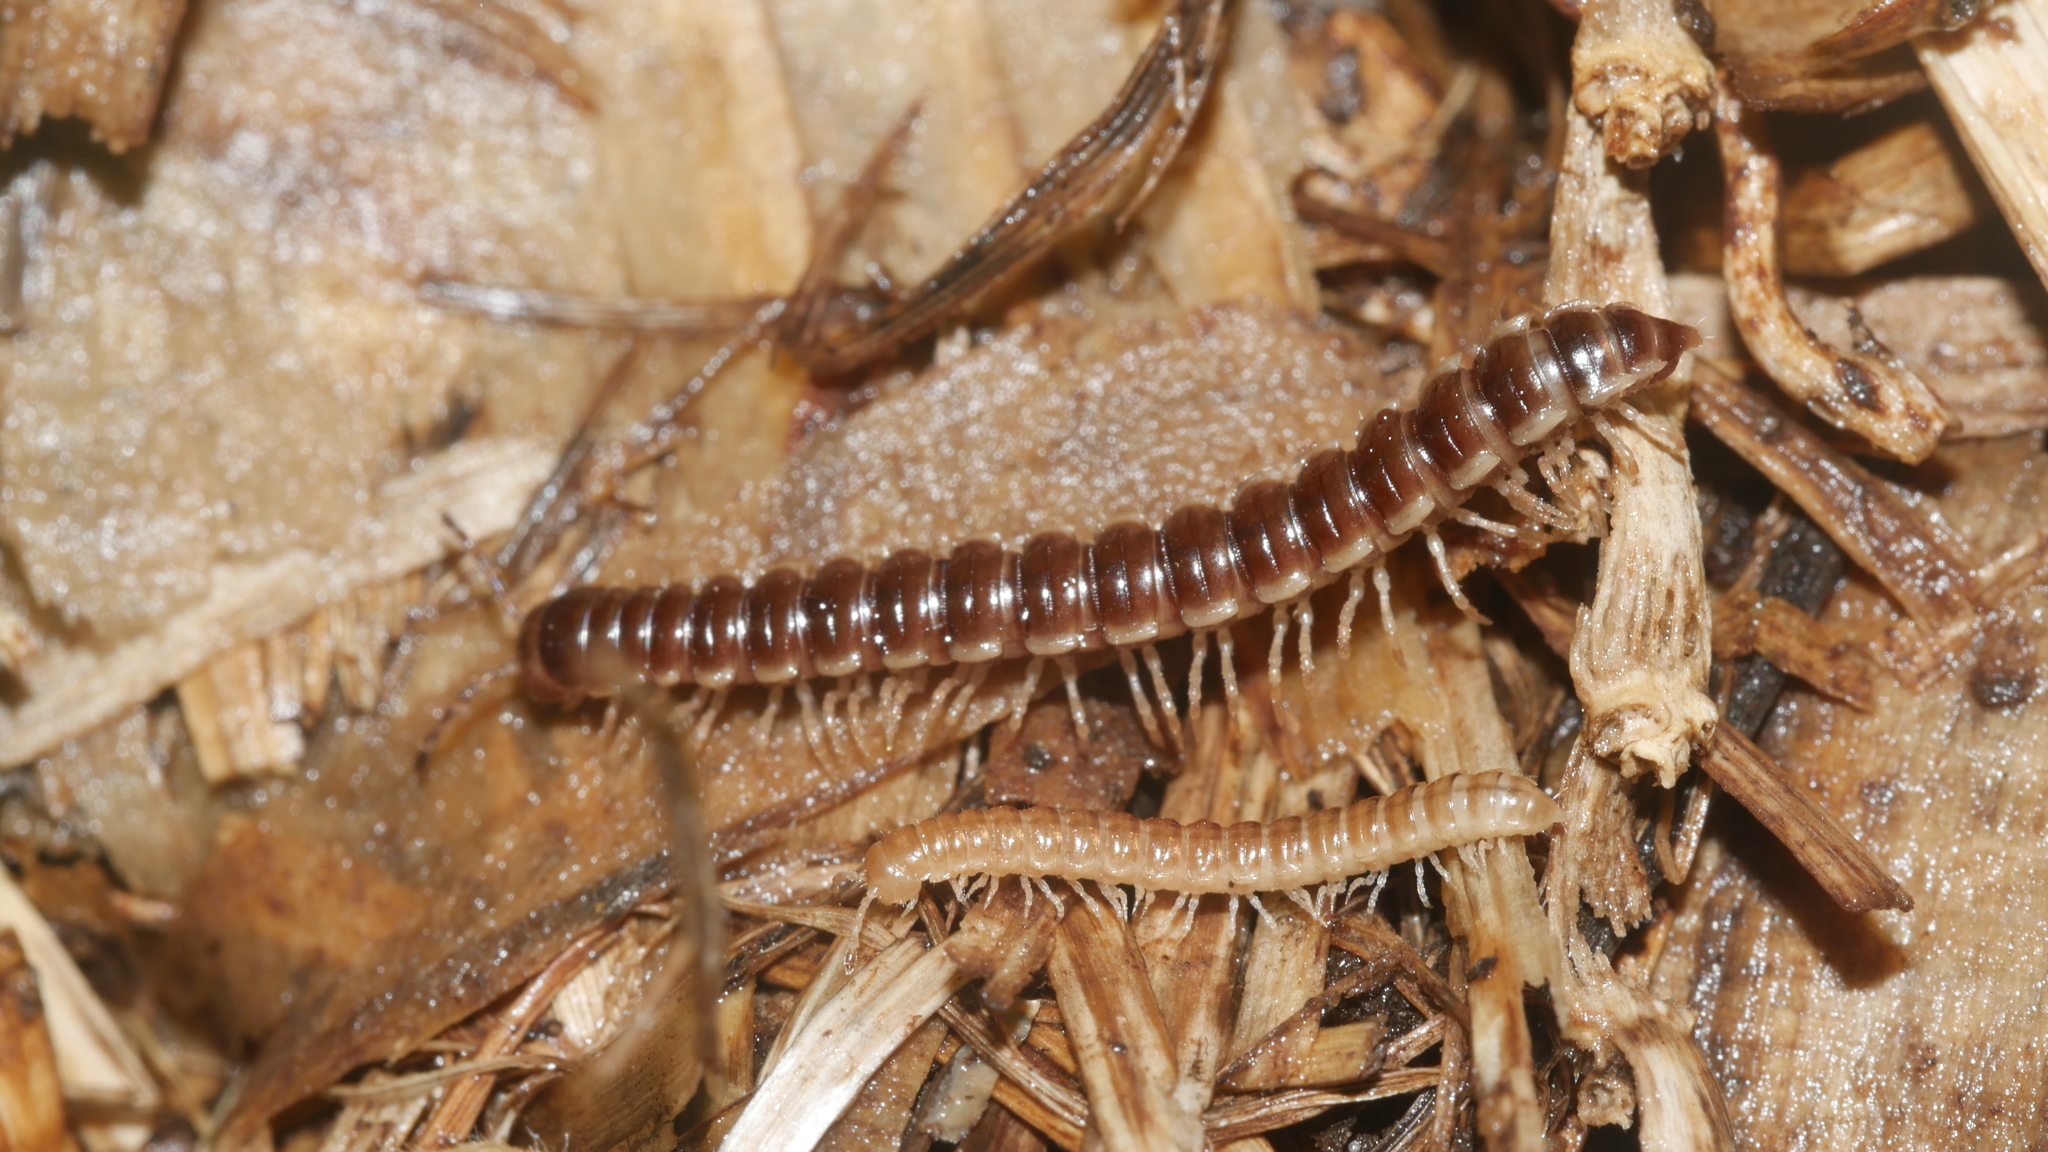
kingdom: Animalia
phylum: Arthropoda
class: Diplopoda
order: Polydesmida
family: Paradoxosomatidae
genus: Oxidus
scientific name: Oxidus gracilis
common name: Greenhouse millipede
